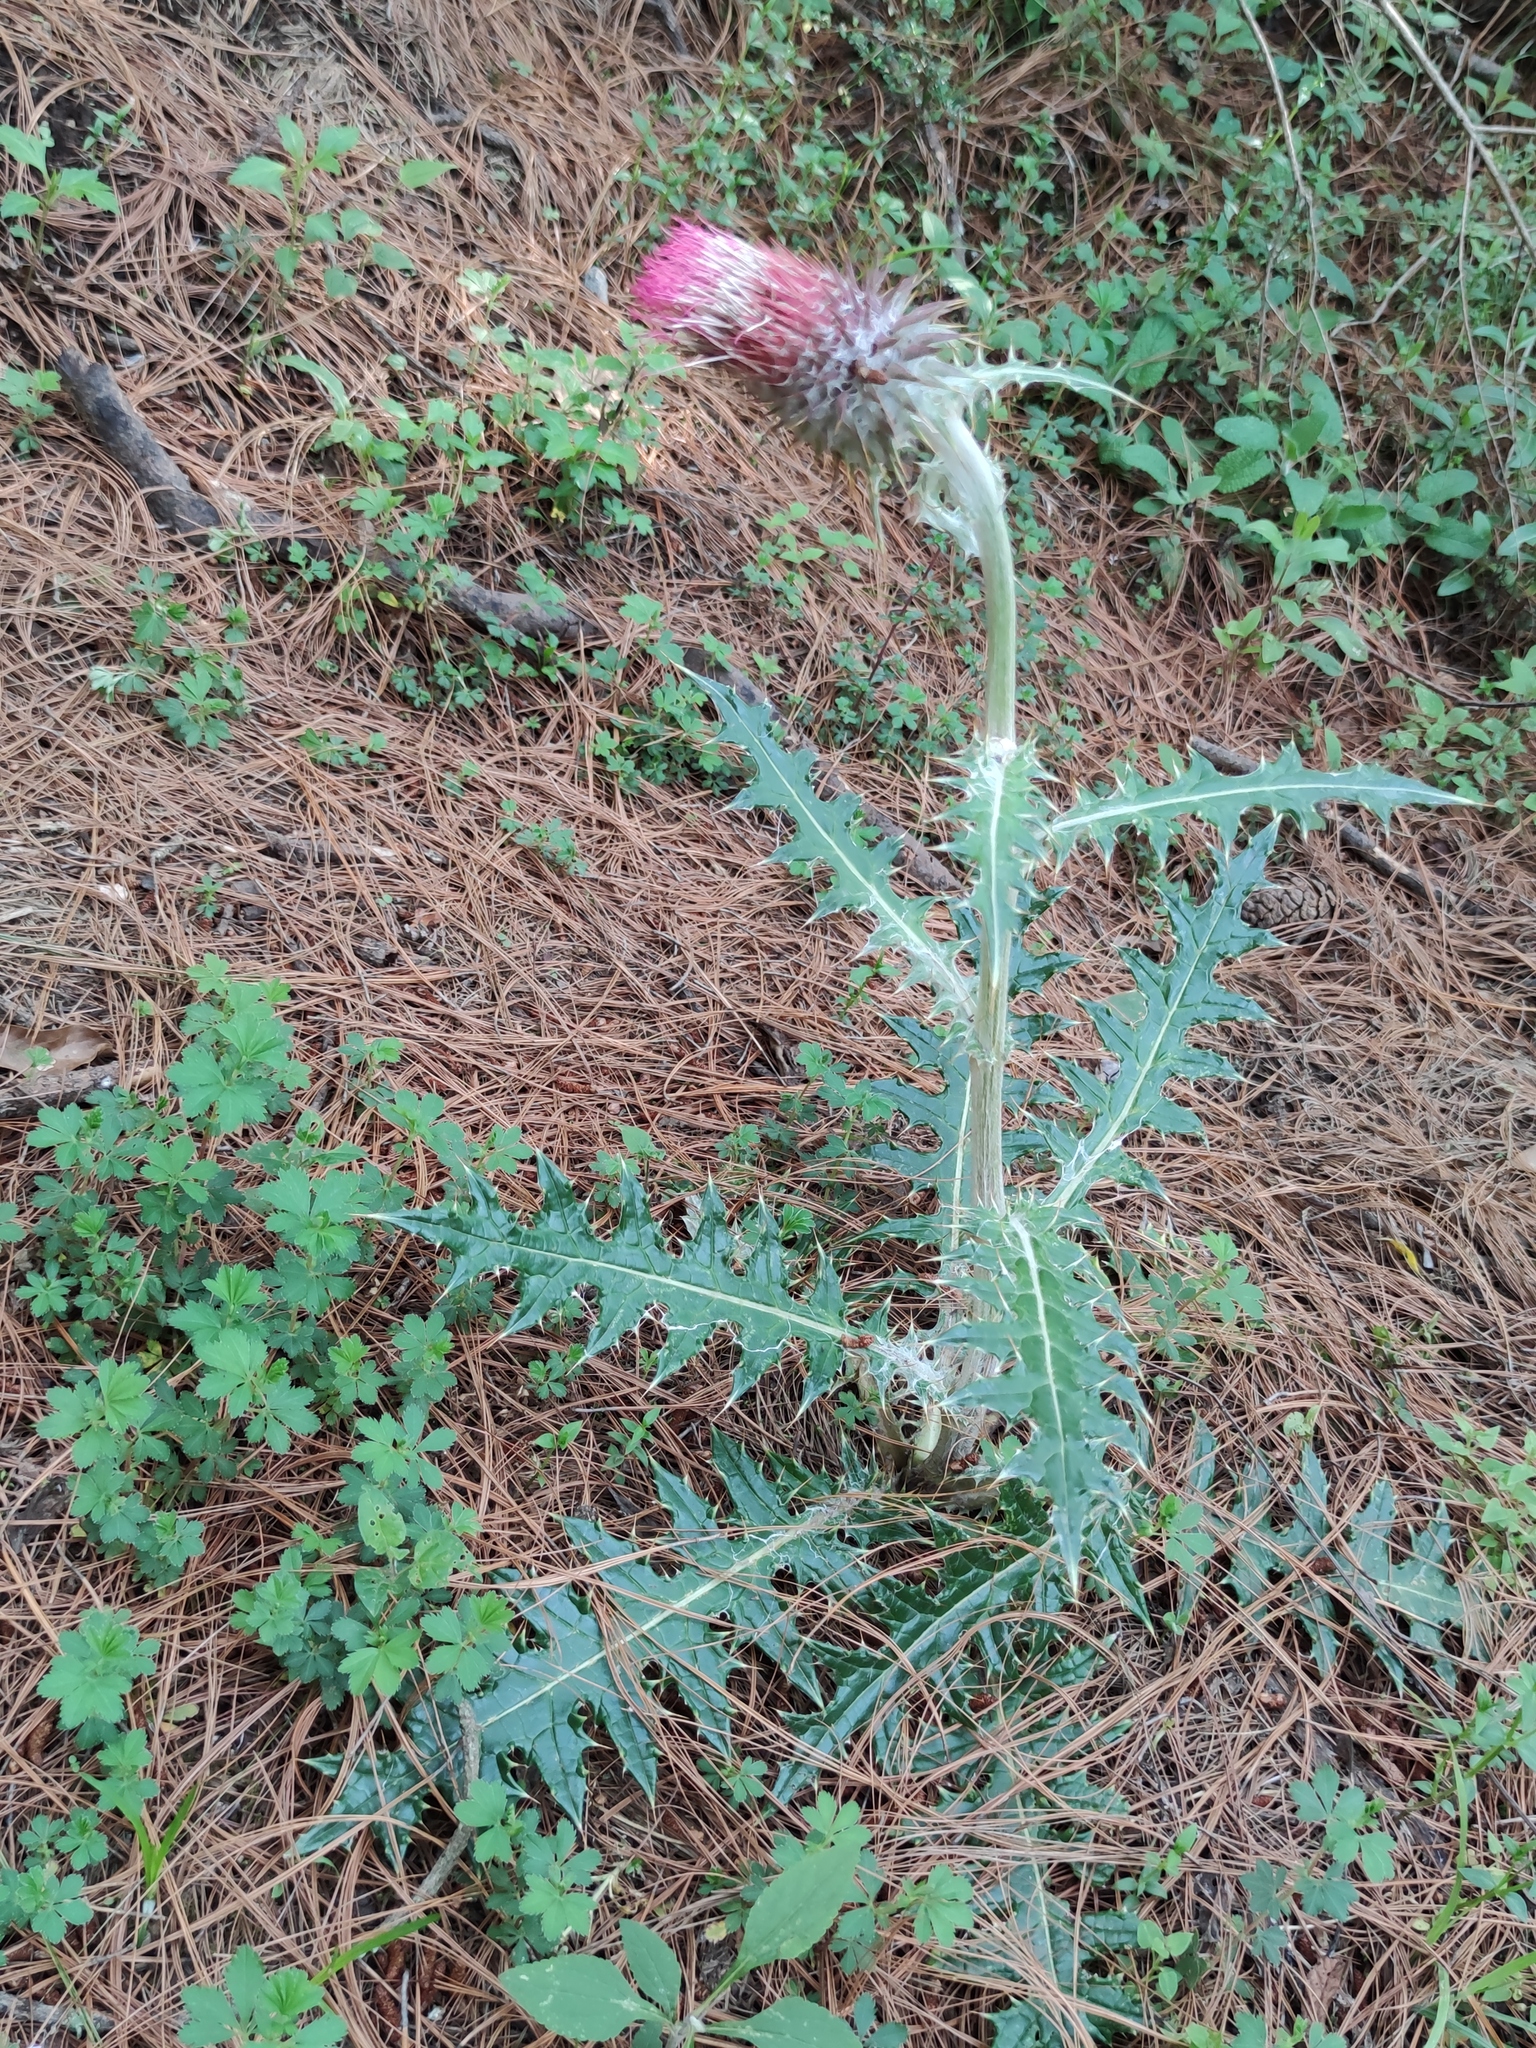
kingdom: Plantae
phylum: Tracheophyta
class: Magnoliopsida
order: Asterales
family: Asteraceae
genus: Cirsium
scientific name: Cirsium ehrenbergii
